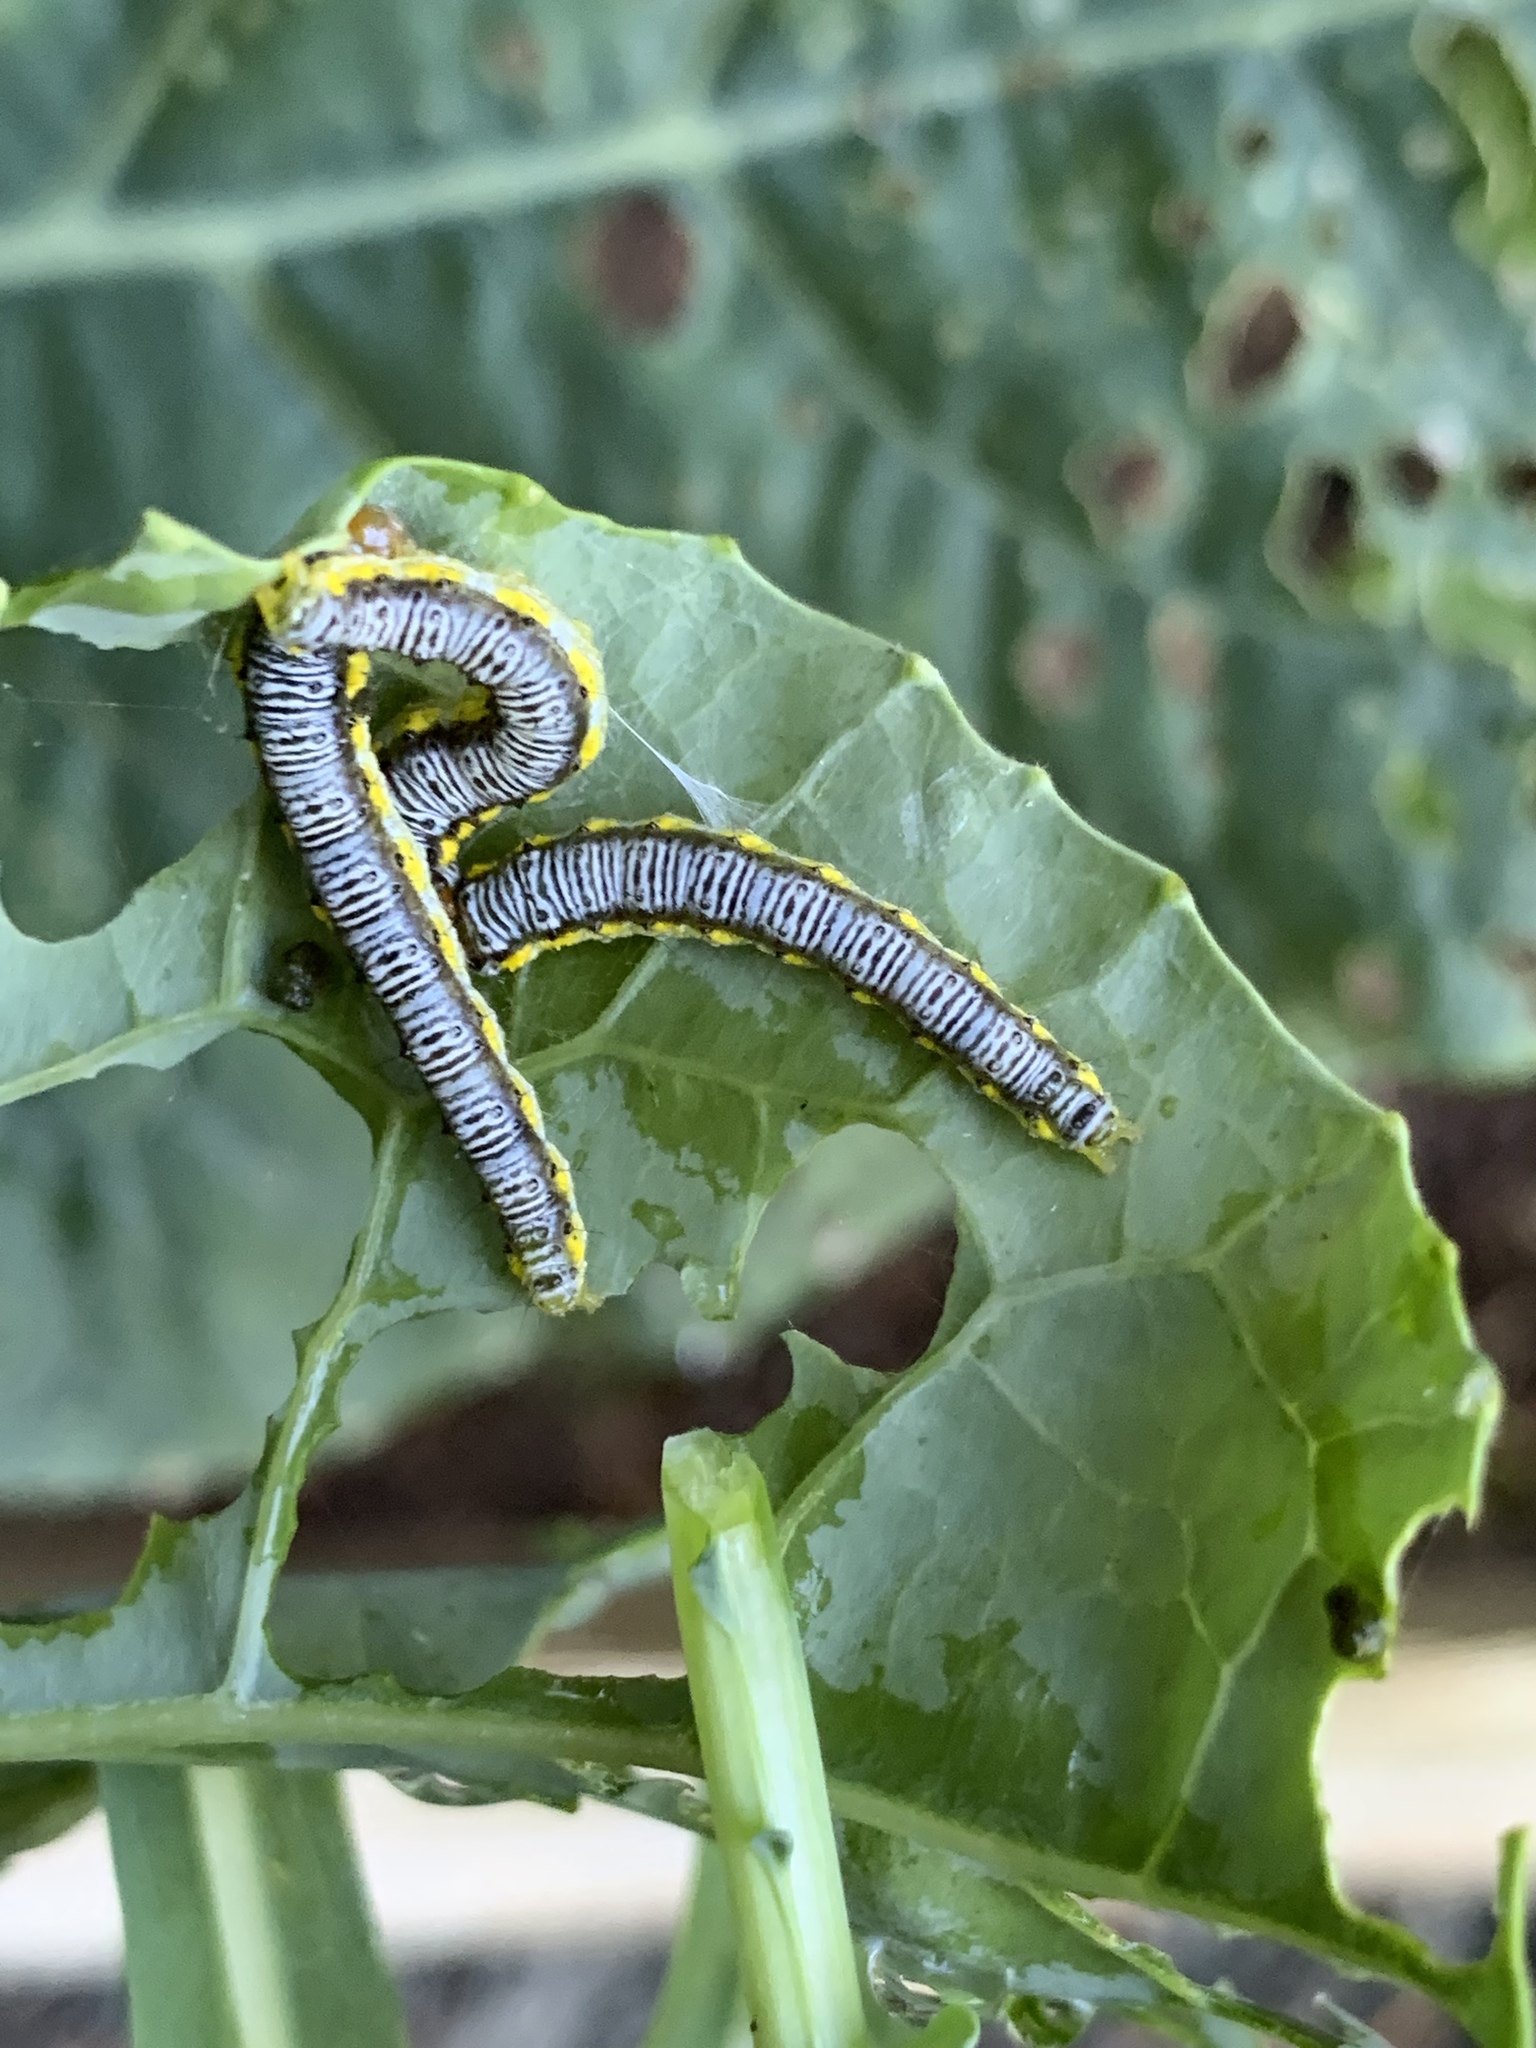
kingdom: Animalia
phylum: Arthropoda
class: Insecta
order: Lepidoptera
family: Crambidae
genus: Evergestis
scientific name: Evergestis rimosalis
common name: Cross-striped cabbageworm moth
